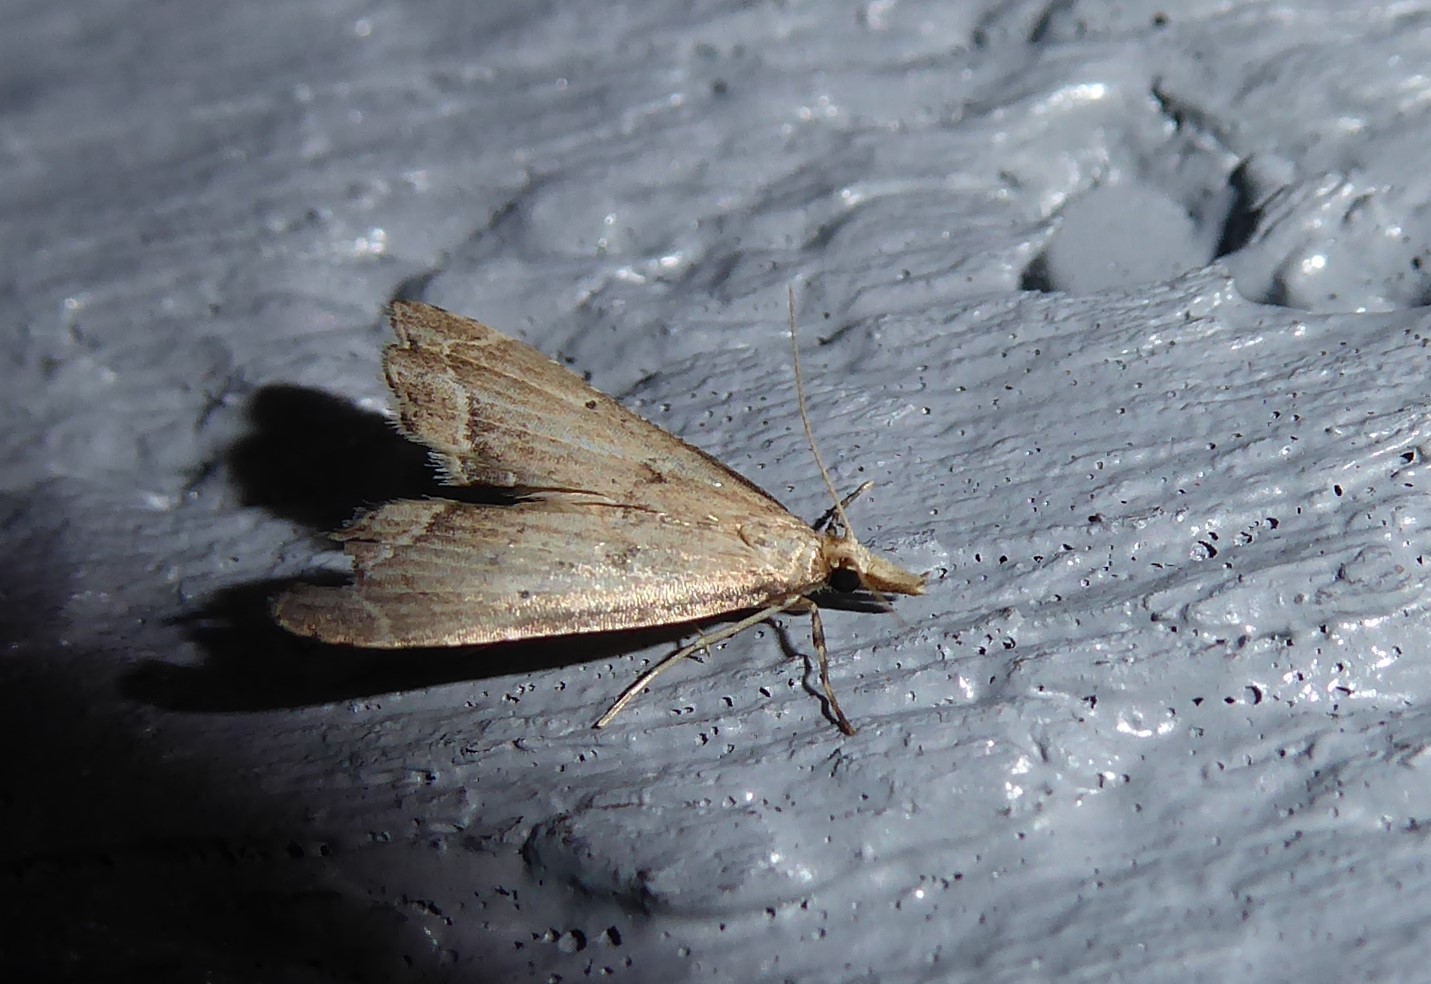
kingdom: Animalia
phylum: Arthropoda
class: Insecta
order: Lepidoptera
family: Crambidae
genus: Diplopseustis
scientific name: Diplopseustis perieresalis
